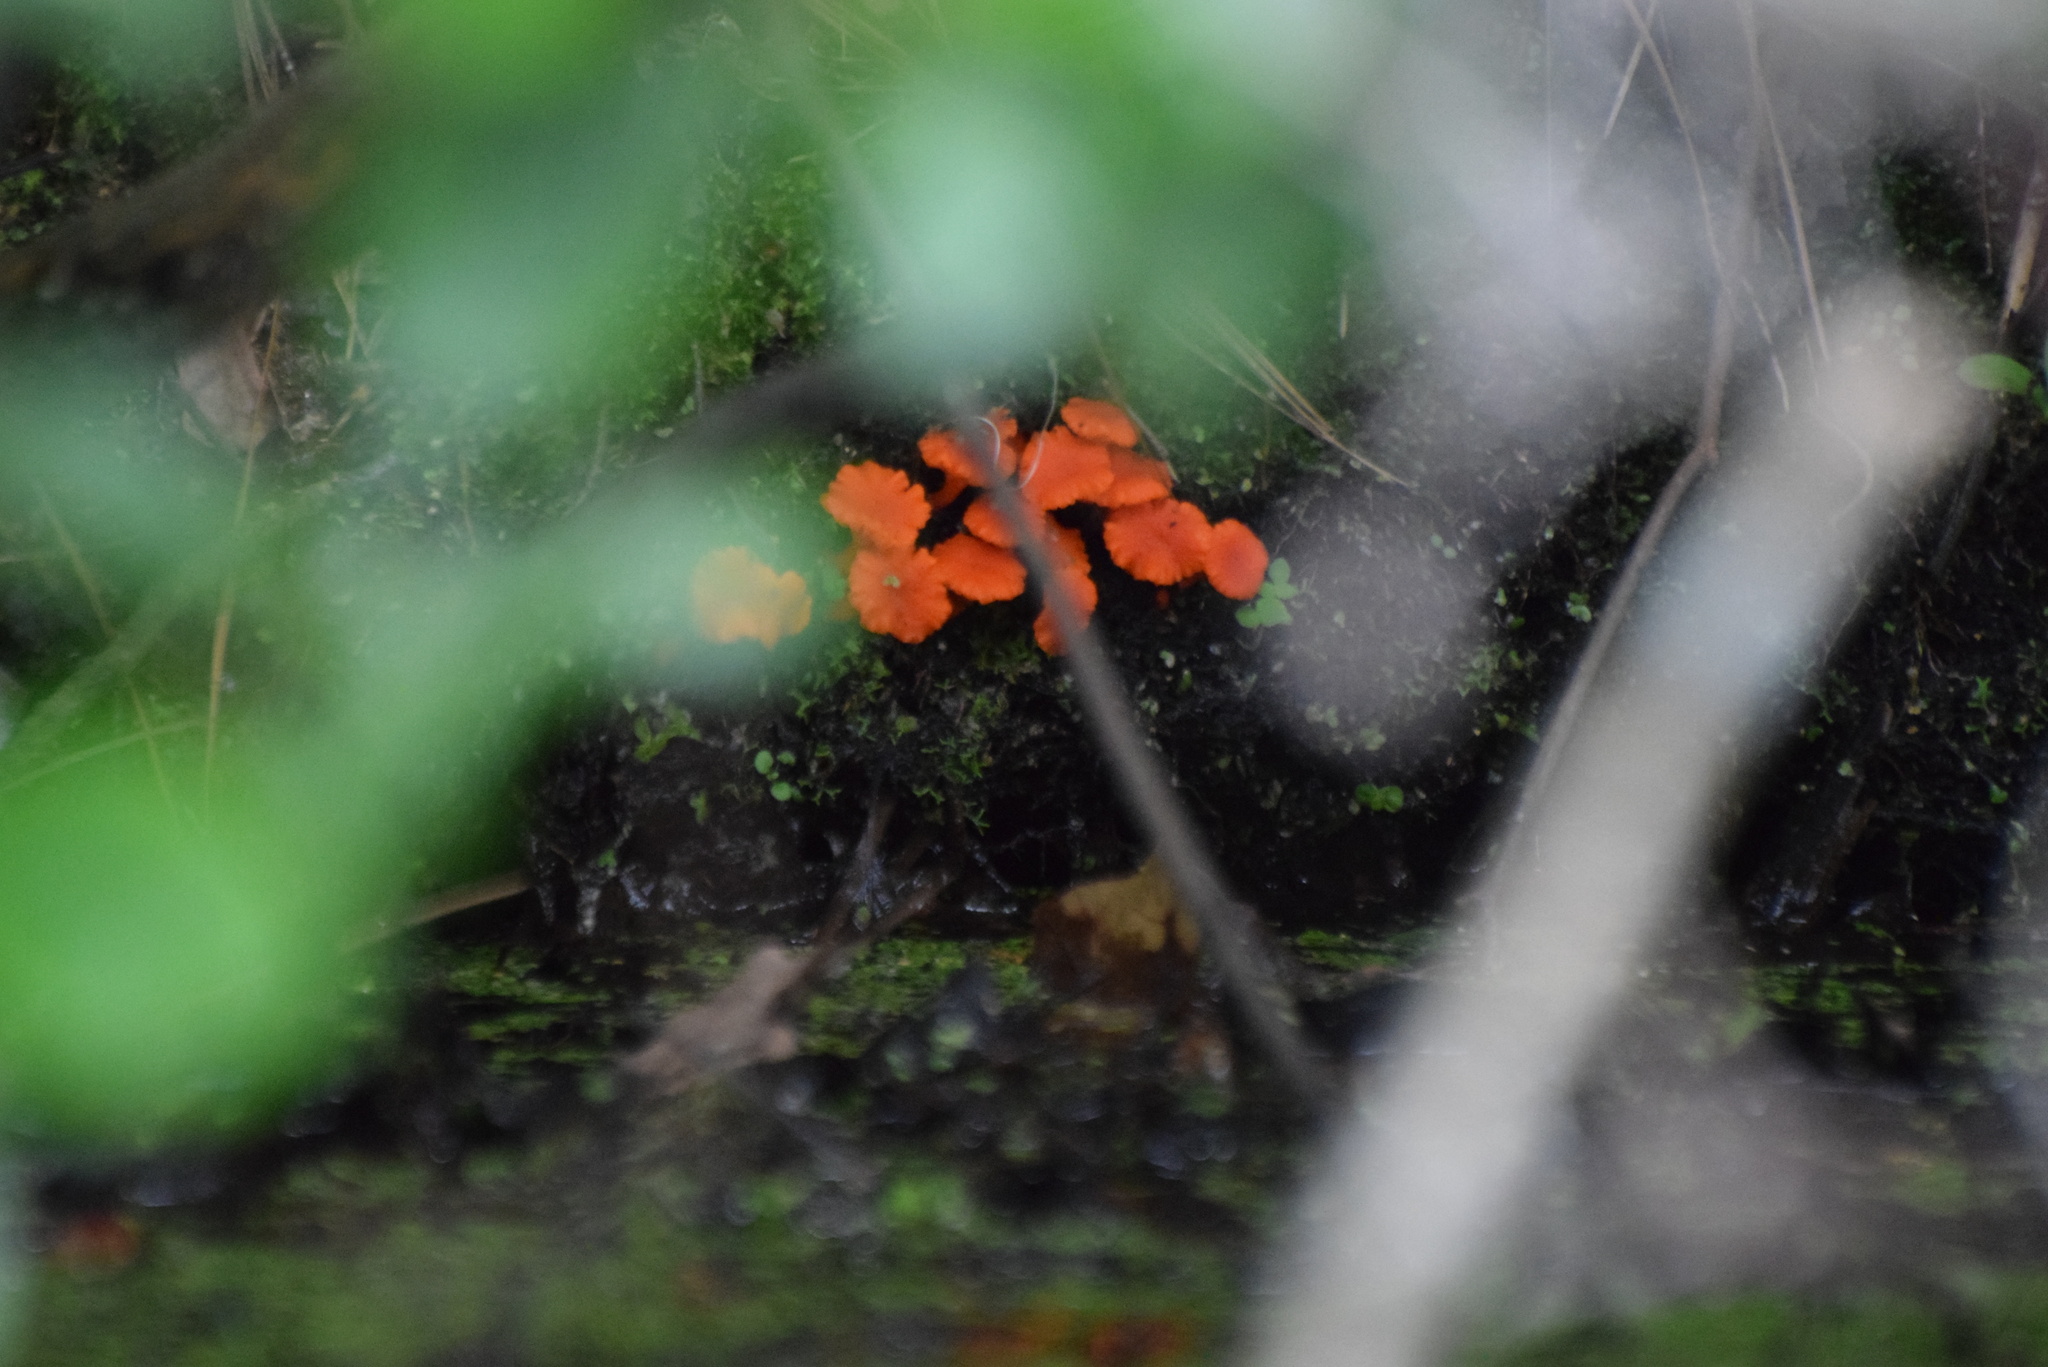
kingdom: Fungi
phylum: Basidiomycota
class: Agaricomycetes
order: Cantharellales
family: Hydnaceae
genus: Cantharellus
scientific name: Cantharellus cinnabarinus
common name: Cinnabar chanterelle
